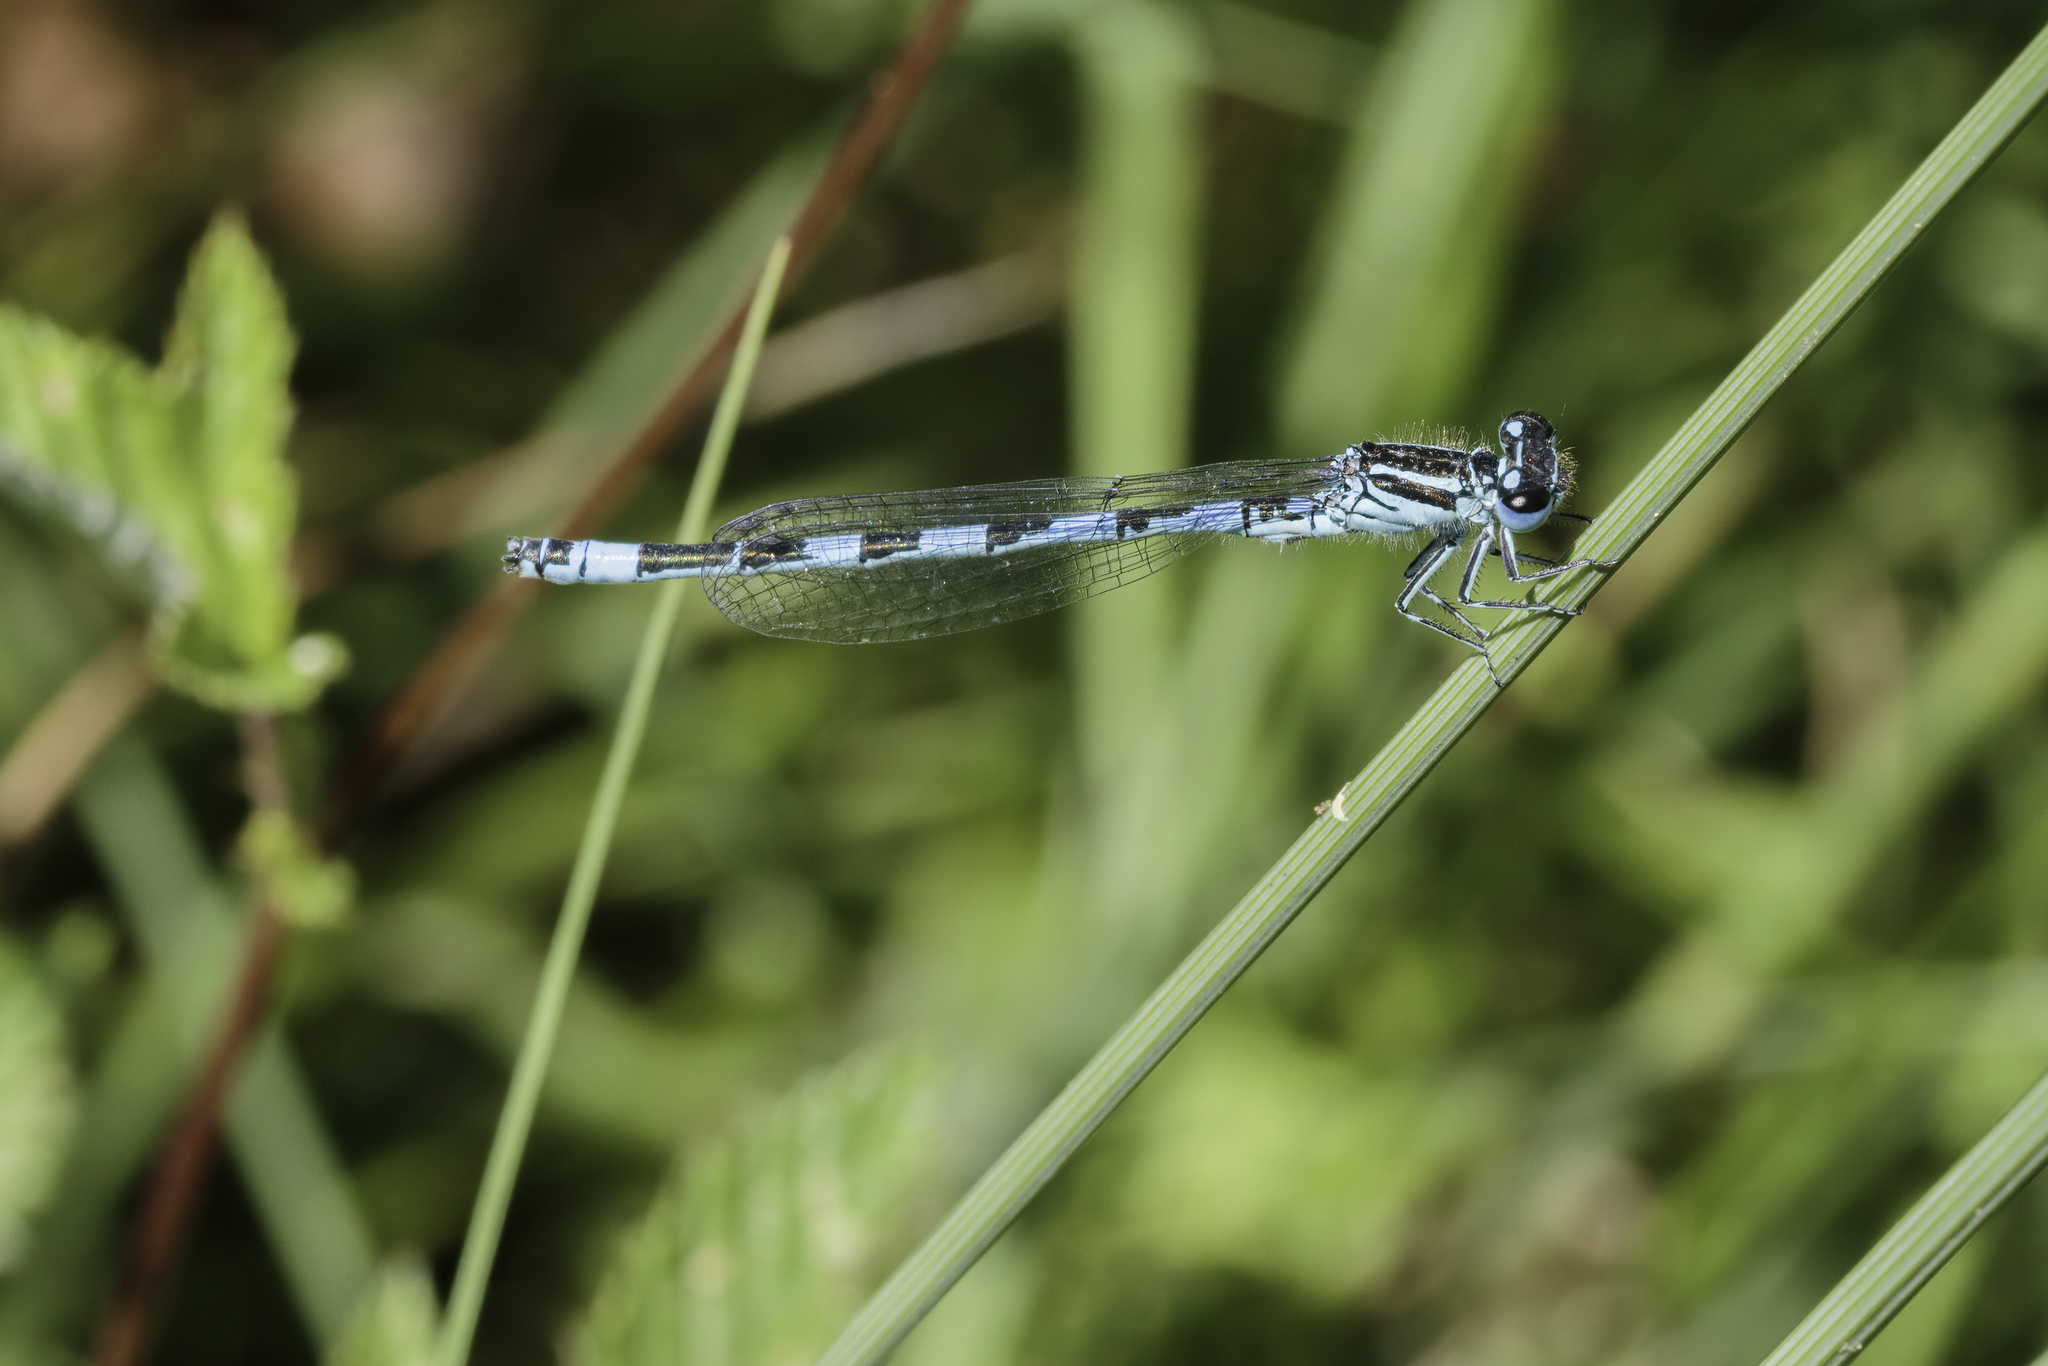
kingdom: Animalia
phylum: Arthropoda
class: Insecta
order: Odonata
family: Coenagrionidae
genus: Coenagrion
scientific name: Coenagrion mercuriale
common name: Southern damselfly
